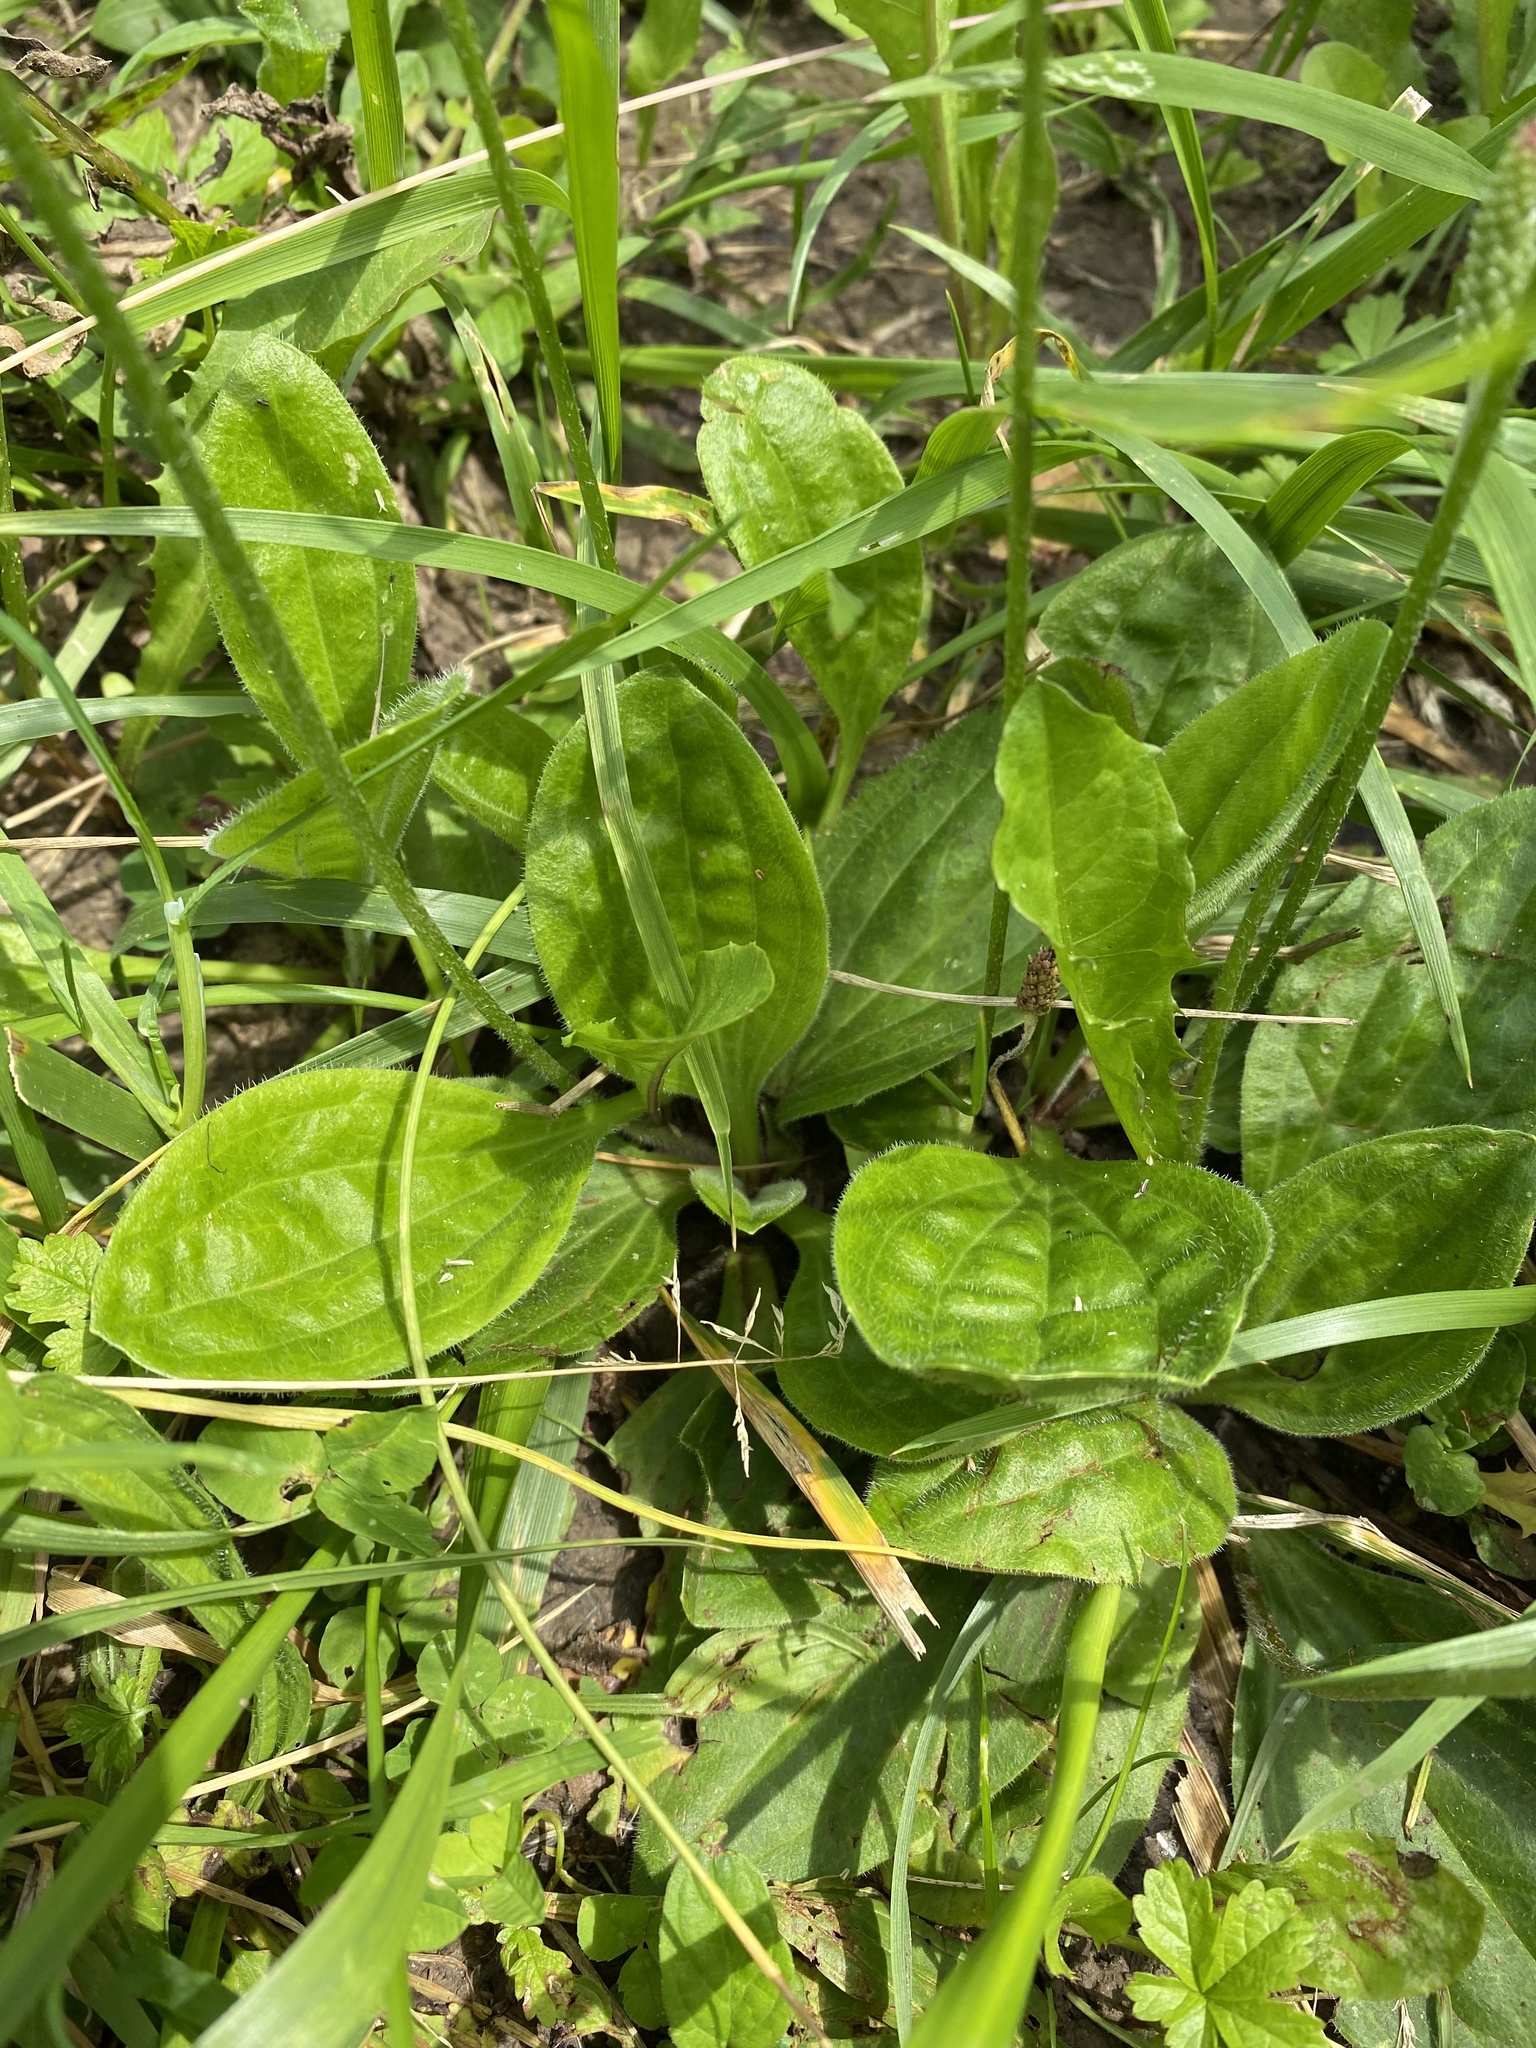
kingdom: Plantae
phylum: Tracheophyta
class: Magnoliopsida
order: Lamiales
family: Plantaginaceae
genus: Plantago
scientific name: Plantago media
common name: Hoary plantain
